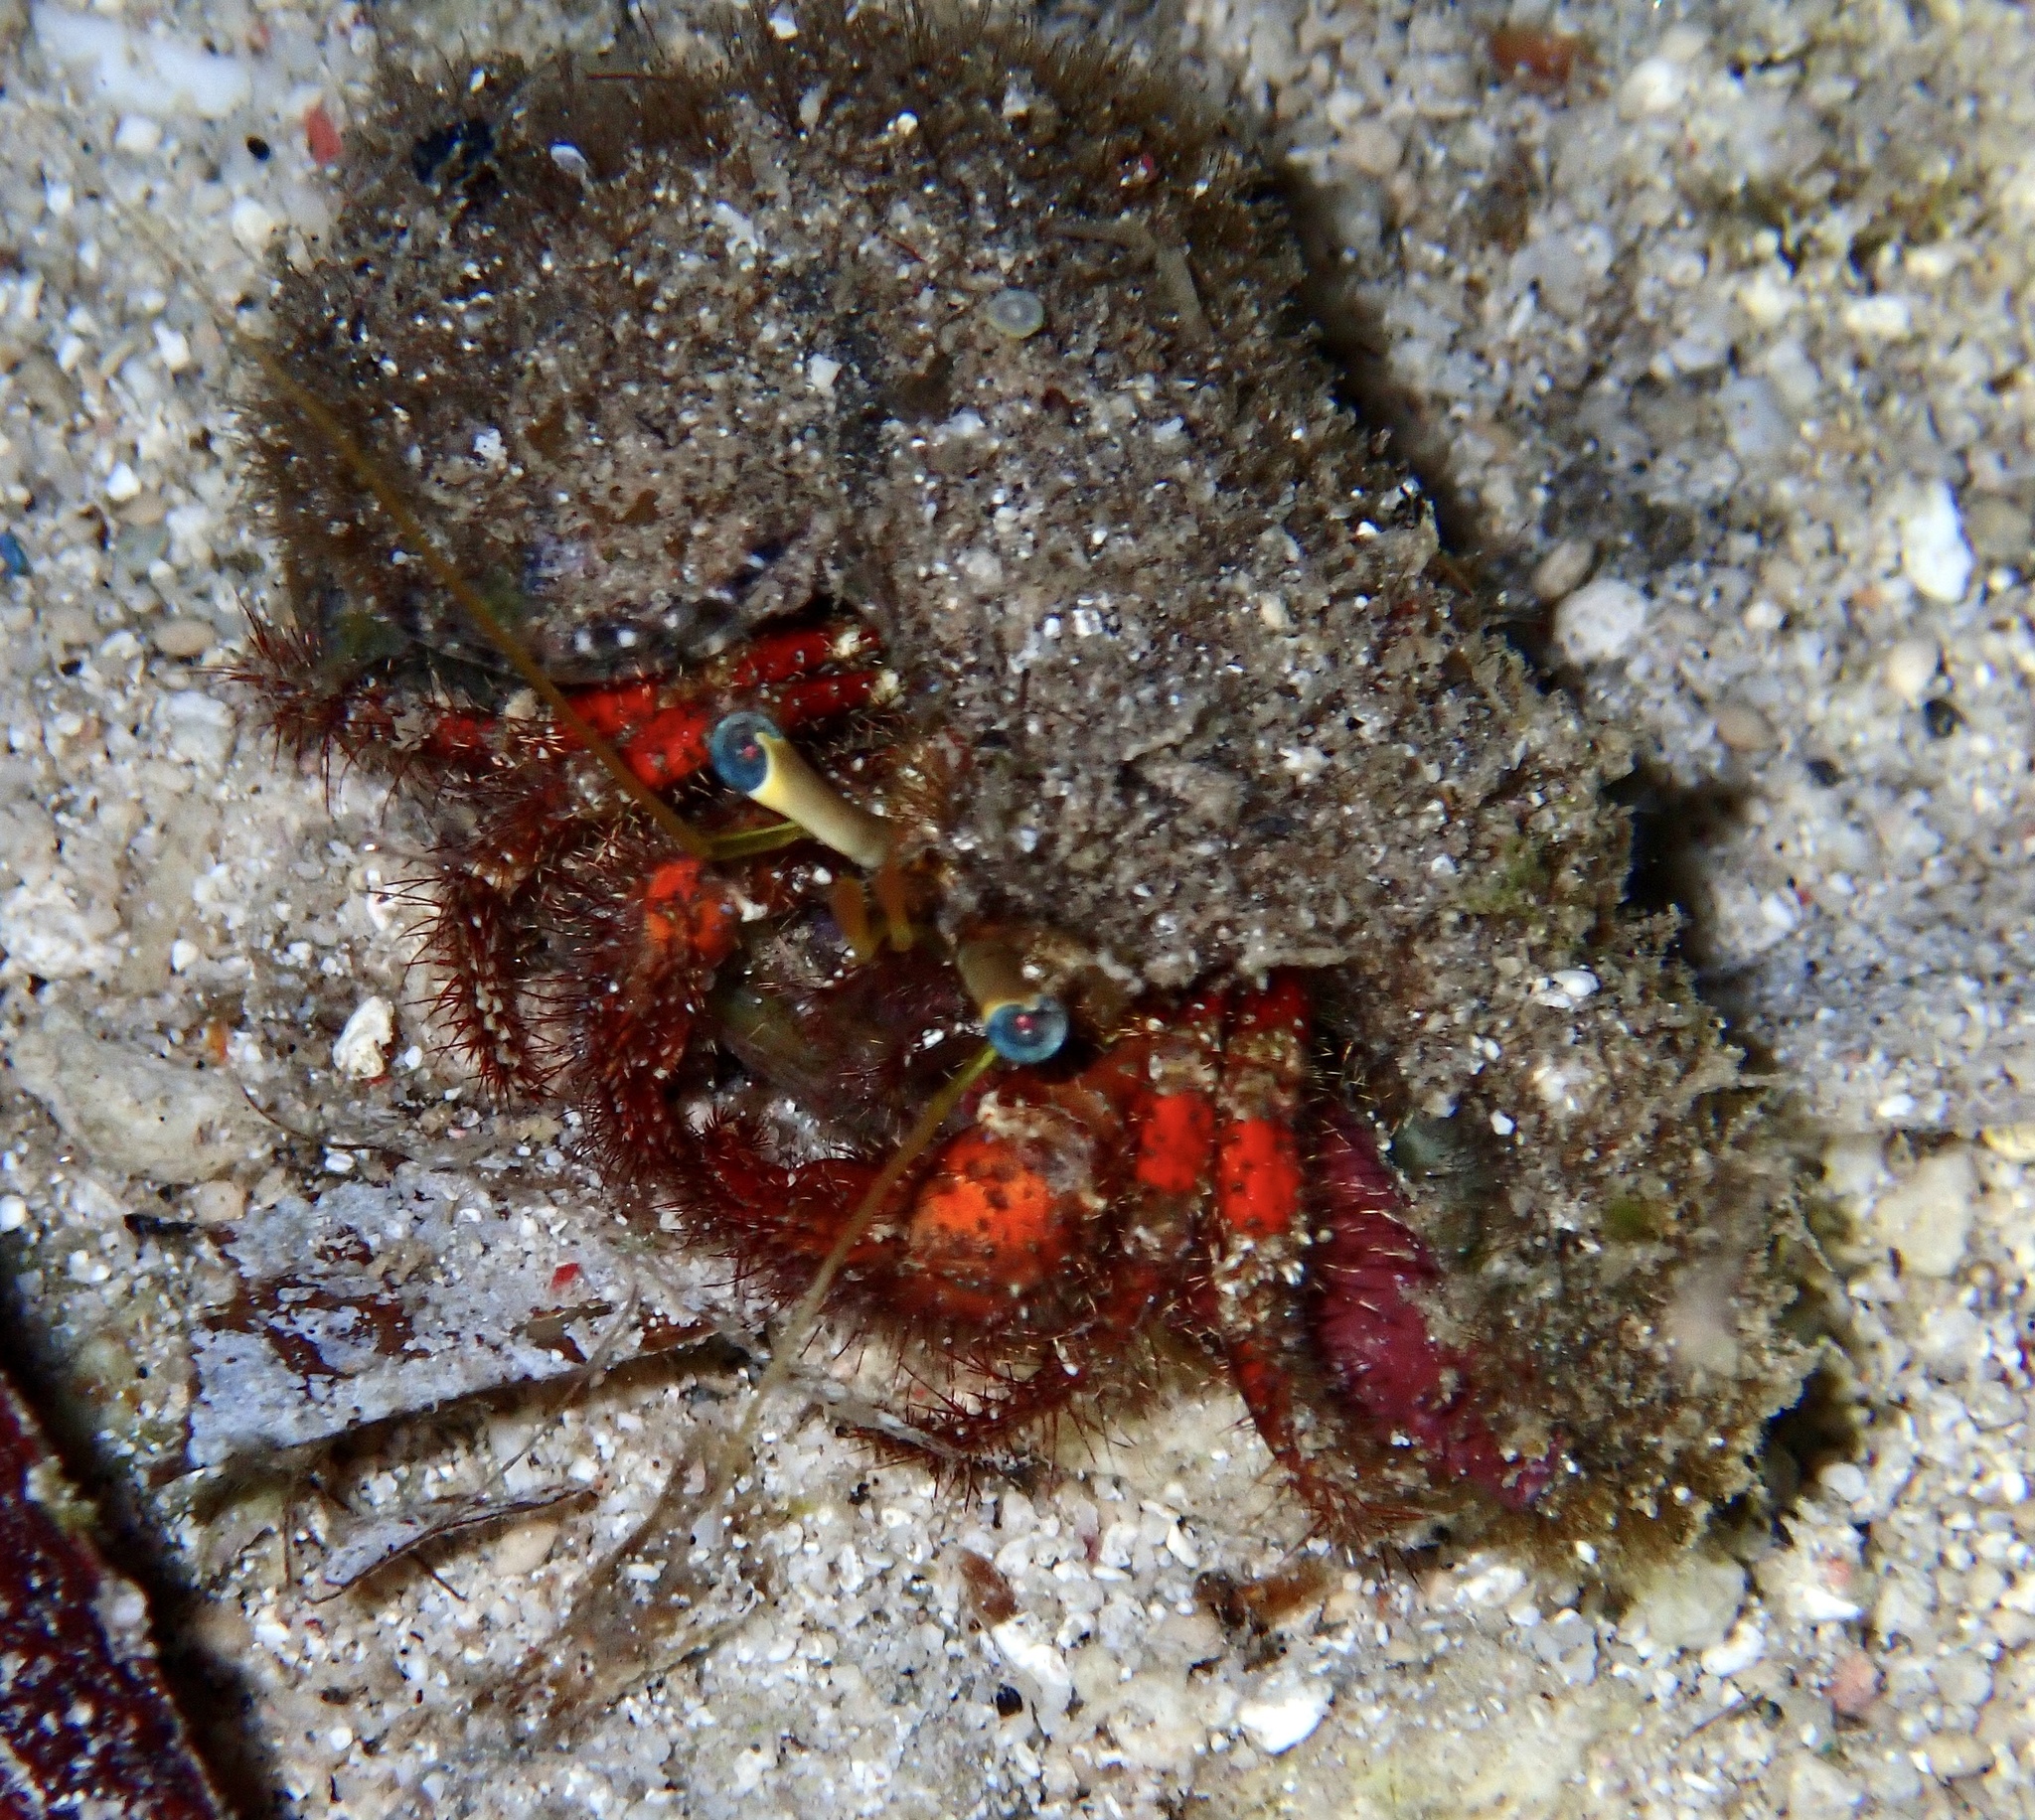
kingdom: Animalia
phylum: Arthropoda
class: Malacostraca
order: Decapoda
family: Diogenidae
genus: Dardanus
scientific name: Dardanus sanguinolentus
